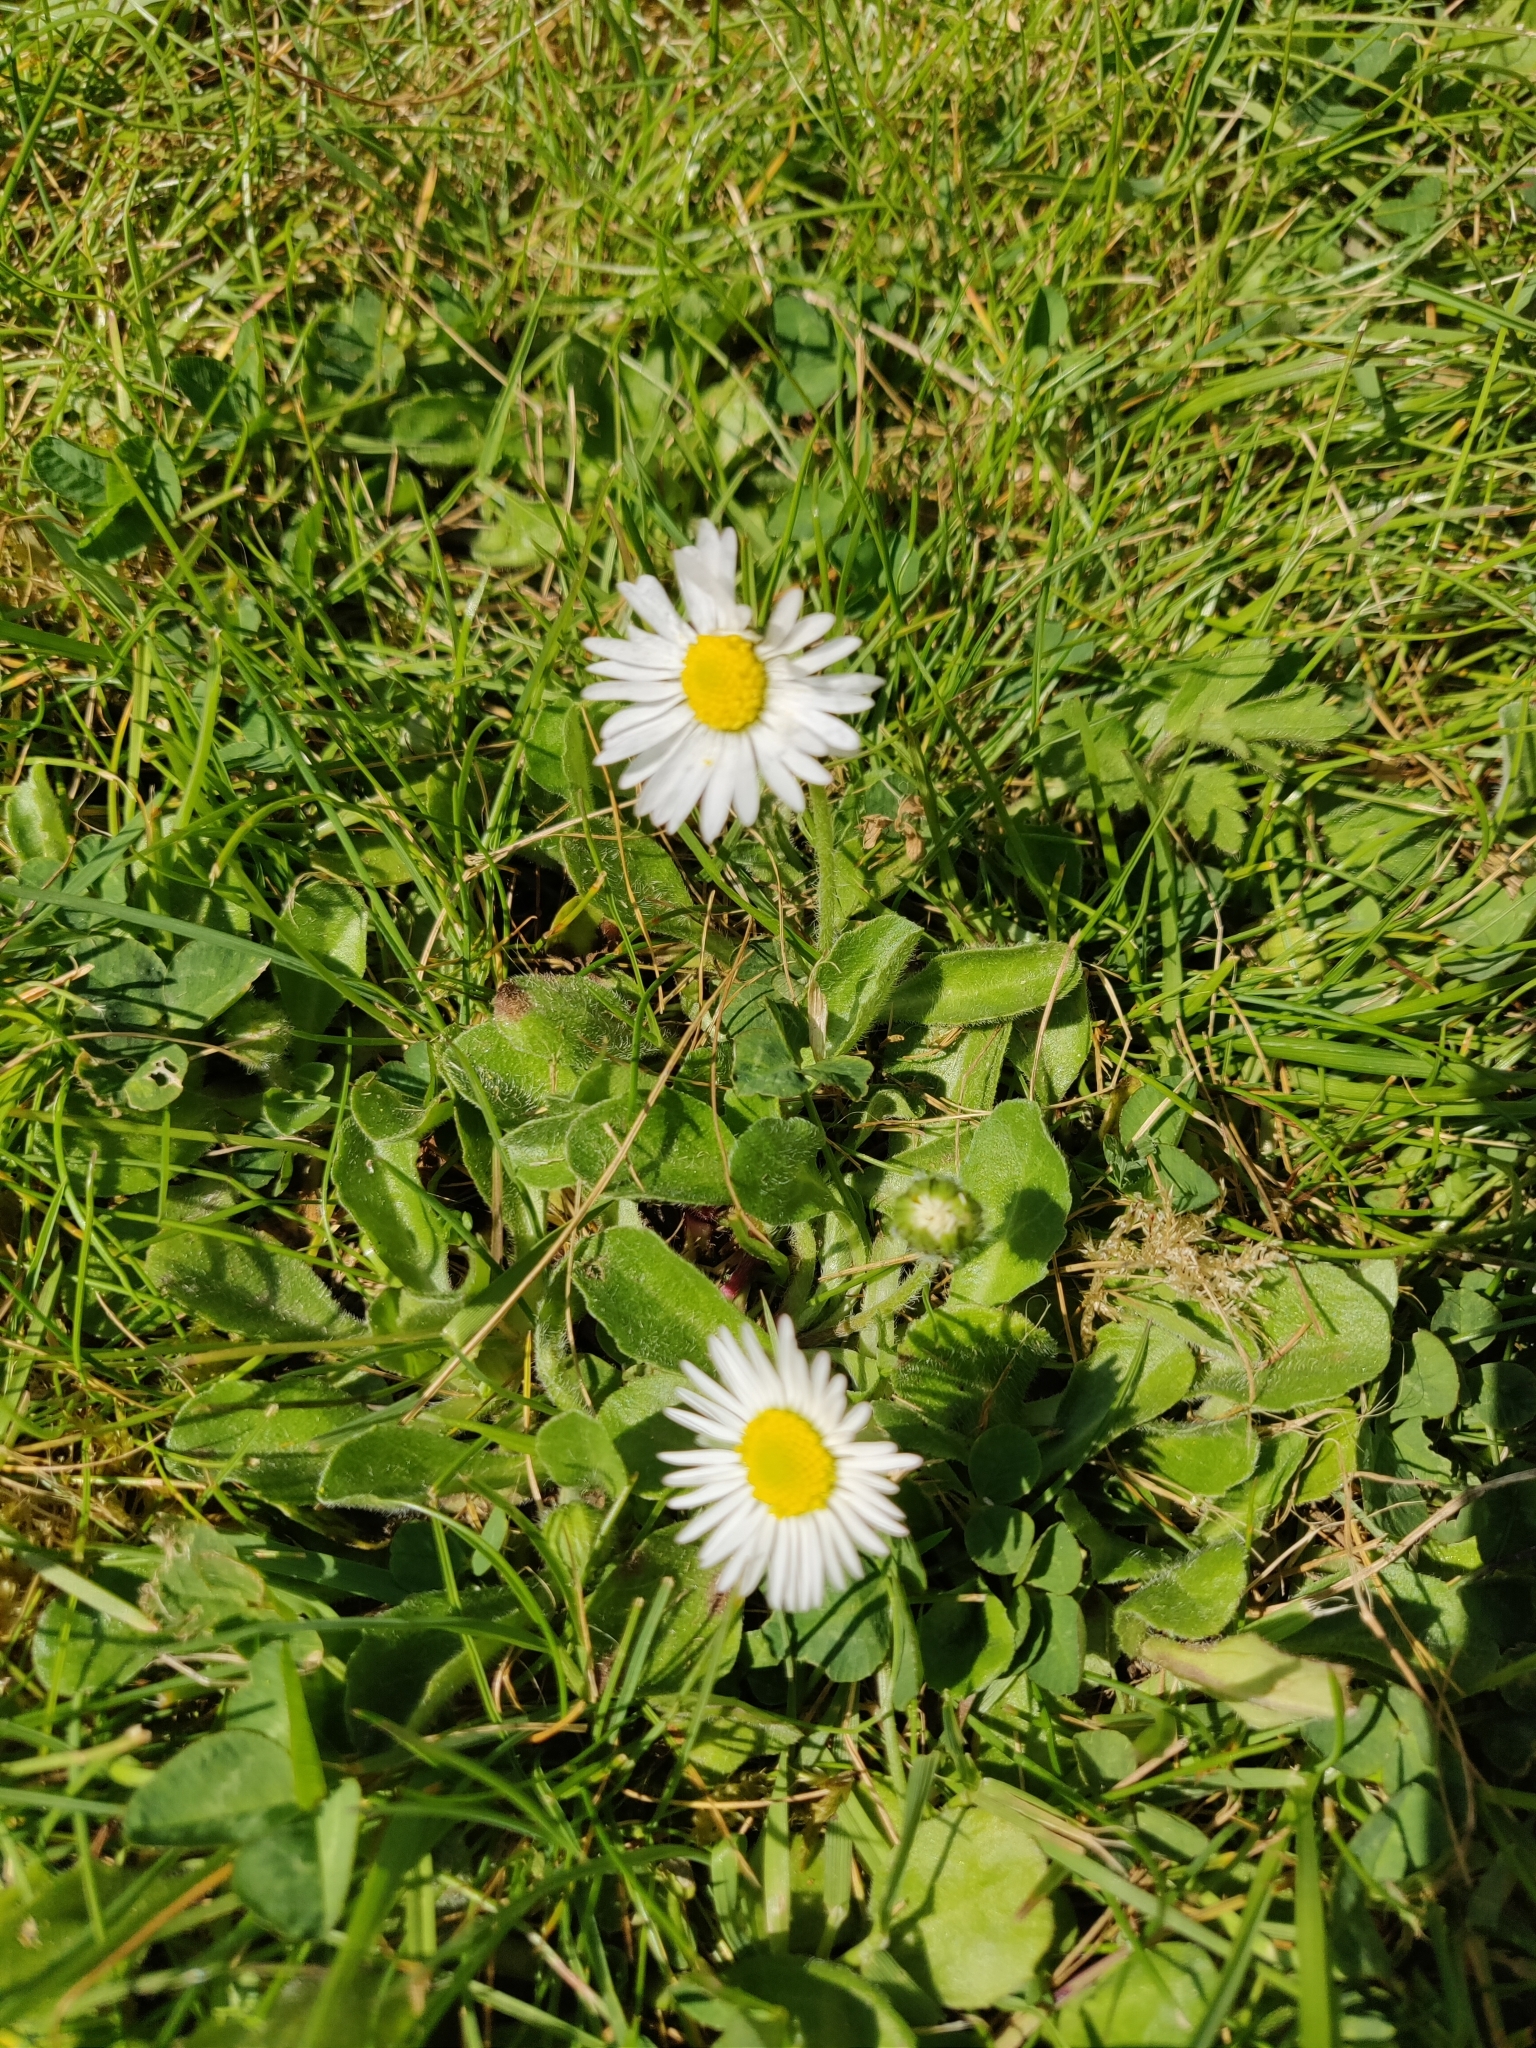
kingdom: Plantae
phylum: Tracheophyta
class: Magnoliopsida
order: Asterales
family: Asteraceae
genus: Bellis
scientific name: Bellis perennis
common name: Lawndaisy
